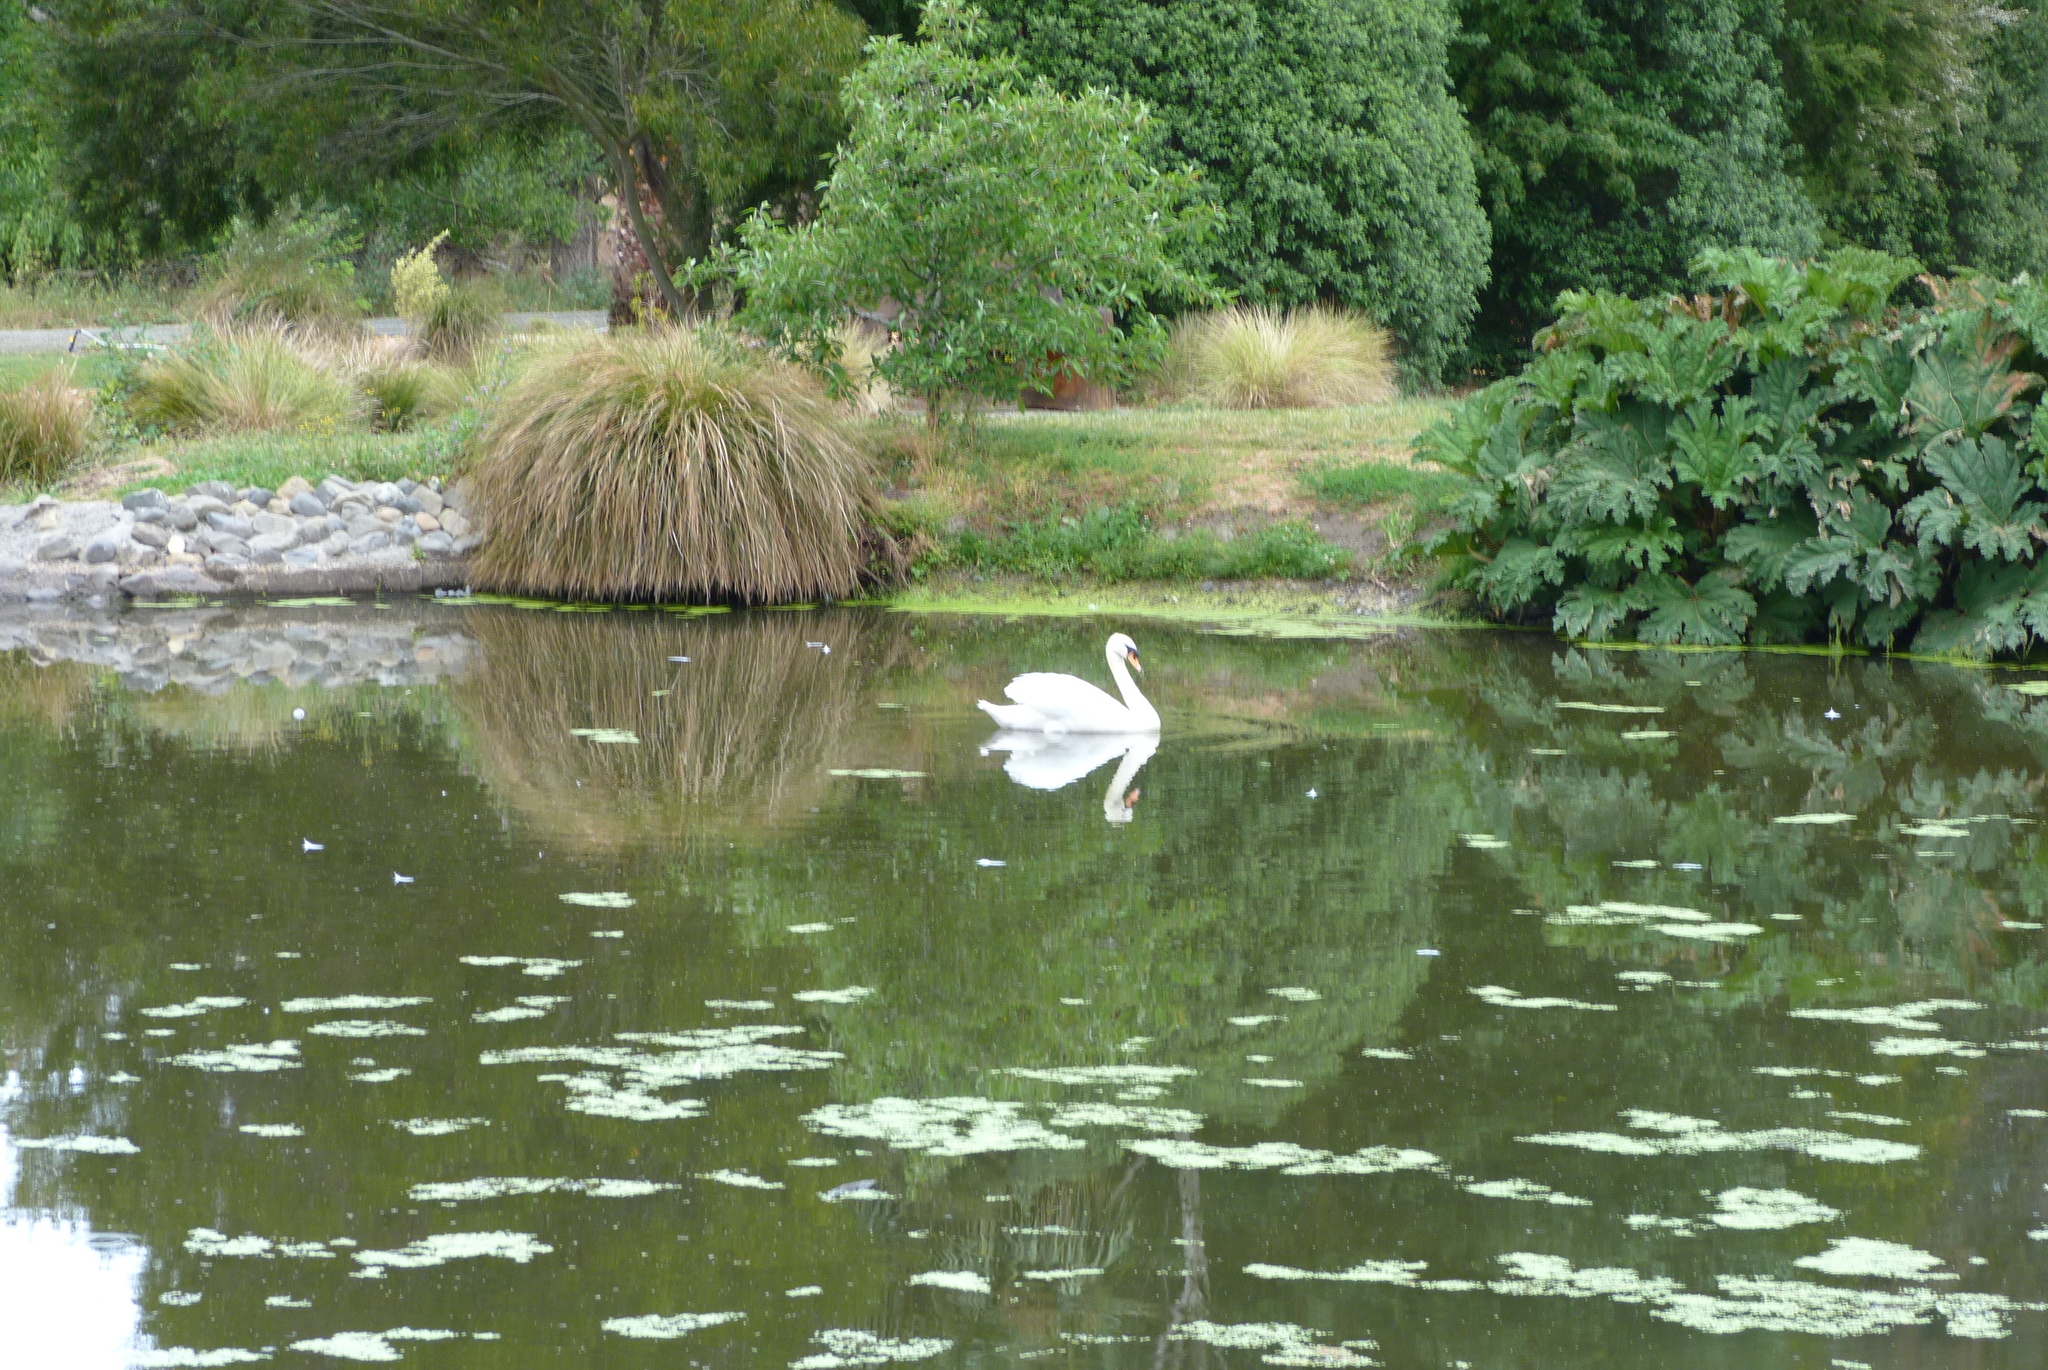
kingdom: Animalia
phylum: Chordata
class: Aves
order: Anseriformes
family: Anatidae
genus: Cygnus
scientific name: Cygnus olor
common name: Mute swan
